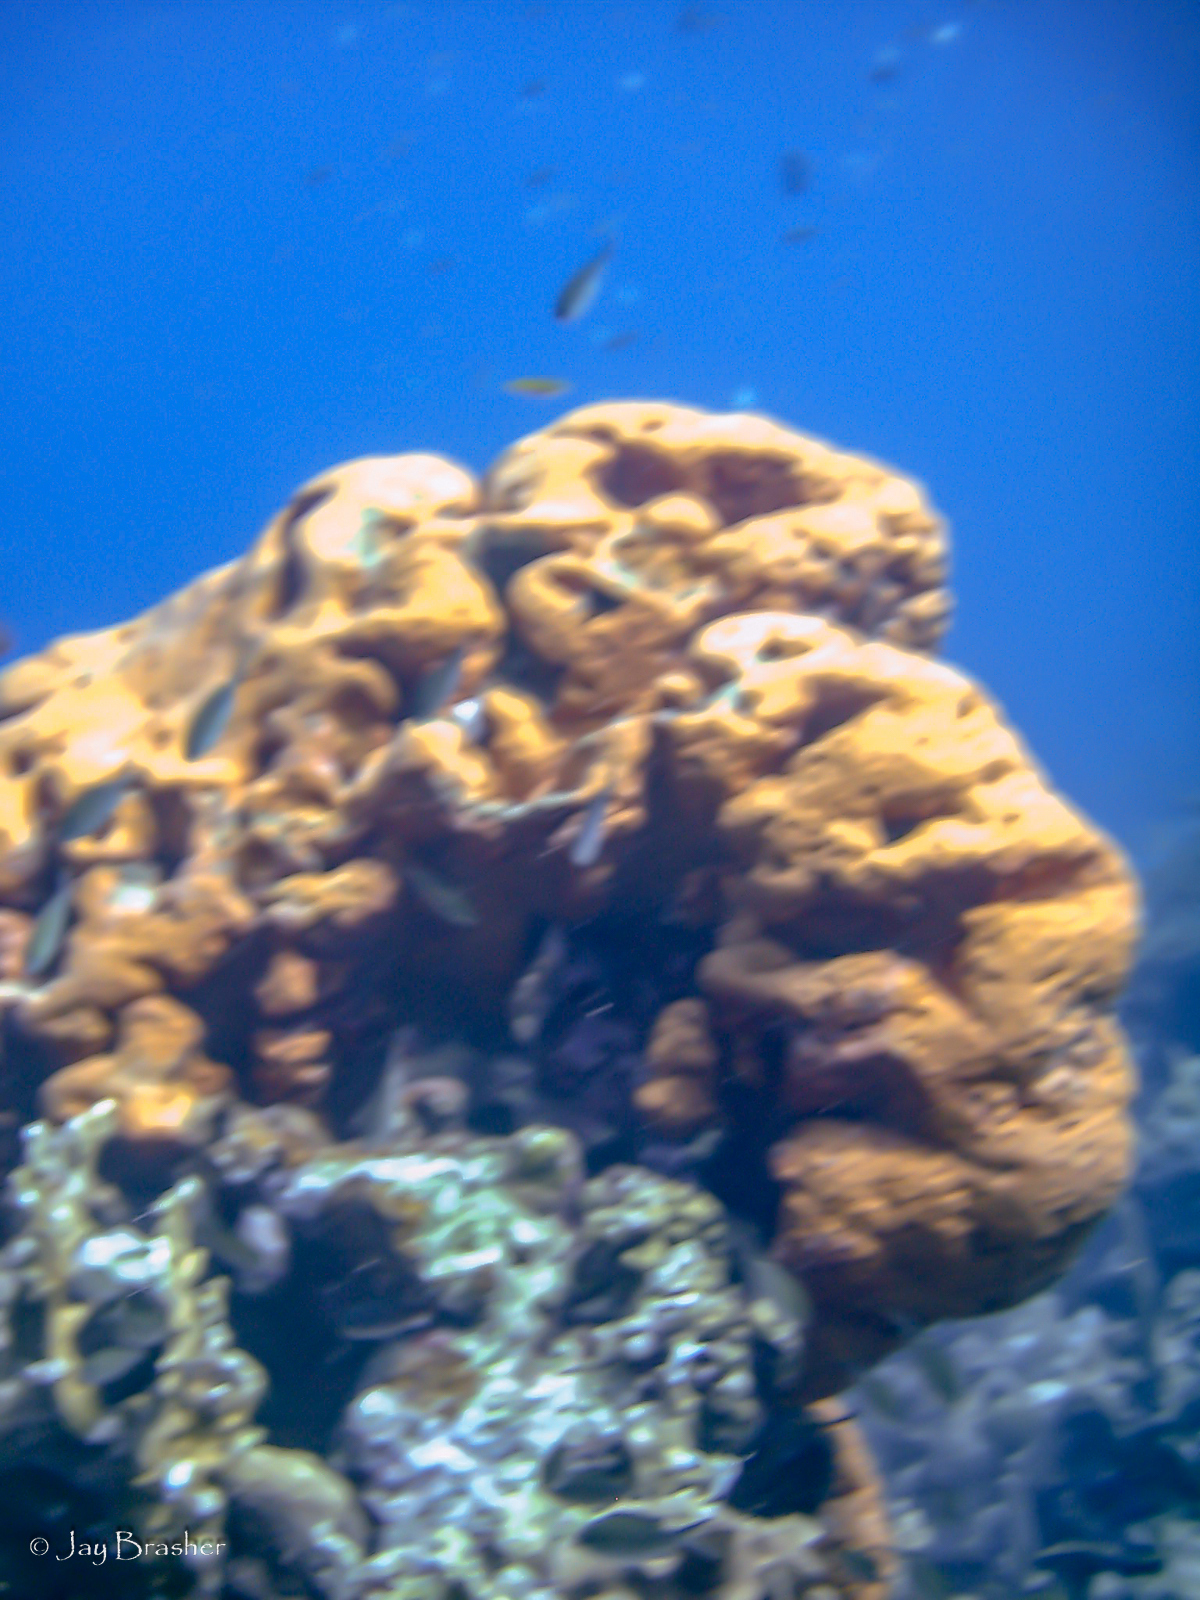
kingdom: Animalia
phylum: Porifera
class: Demospongiae
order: Agelasida
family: Agelasidae
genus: Agelas
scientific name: Agelas clathrodes
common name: Orange elephant ear sponge
